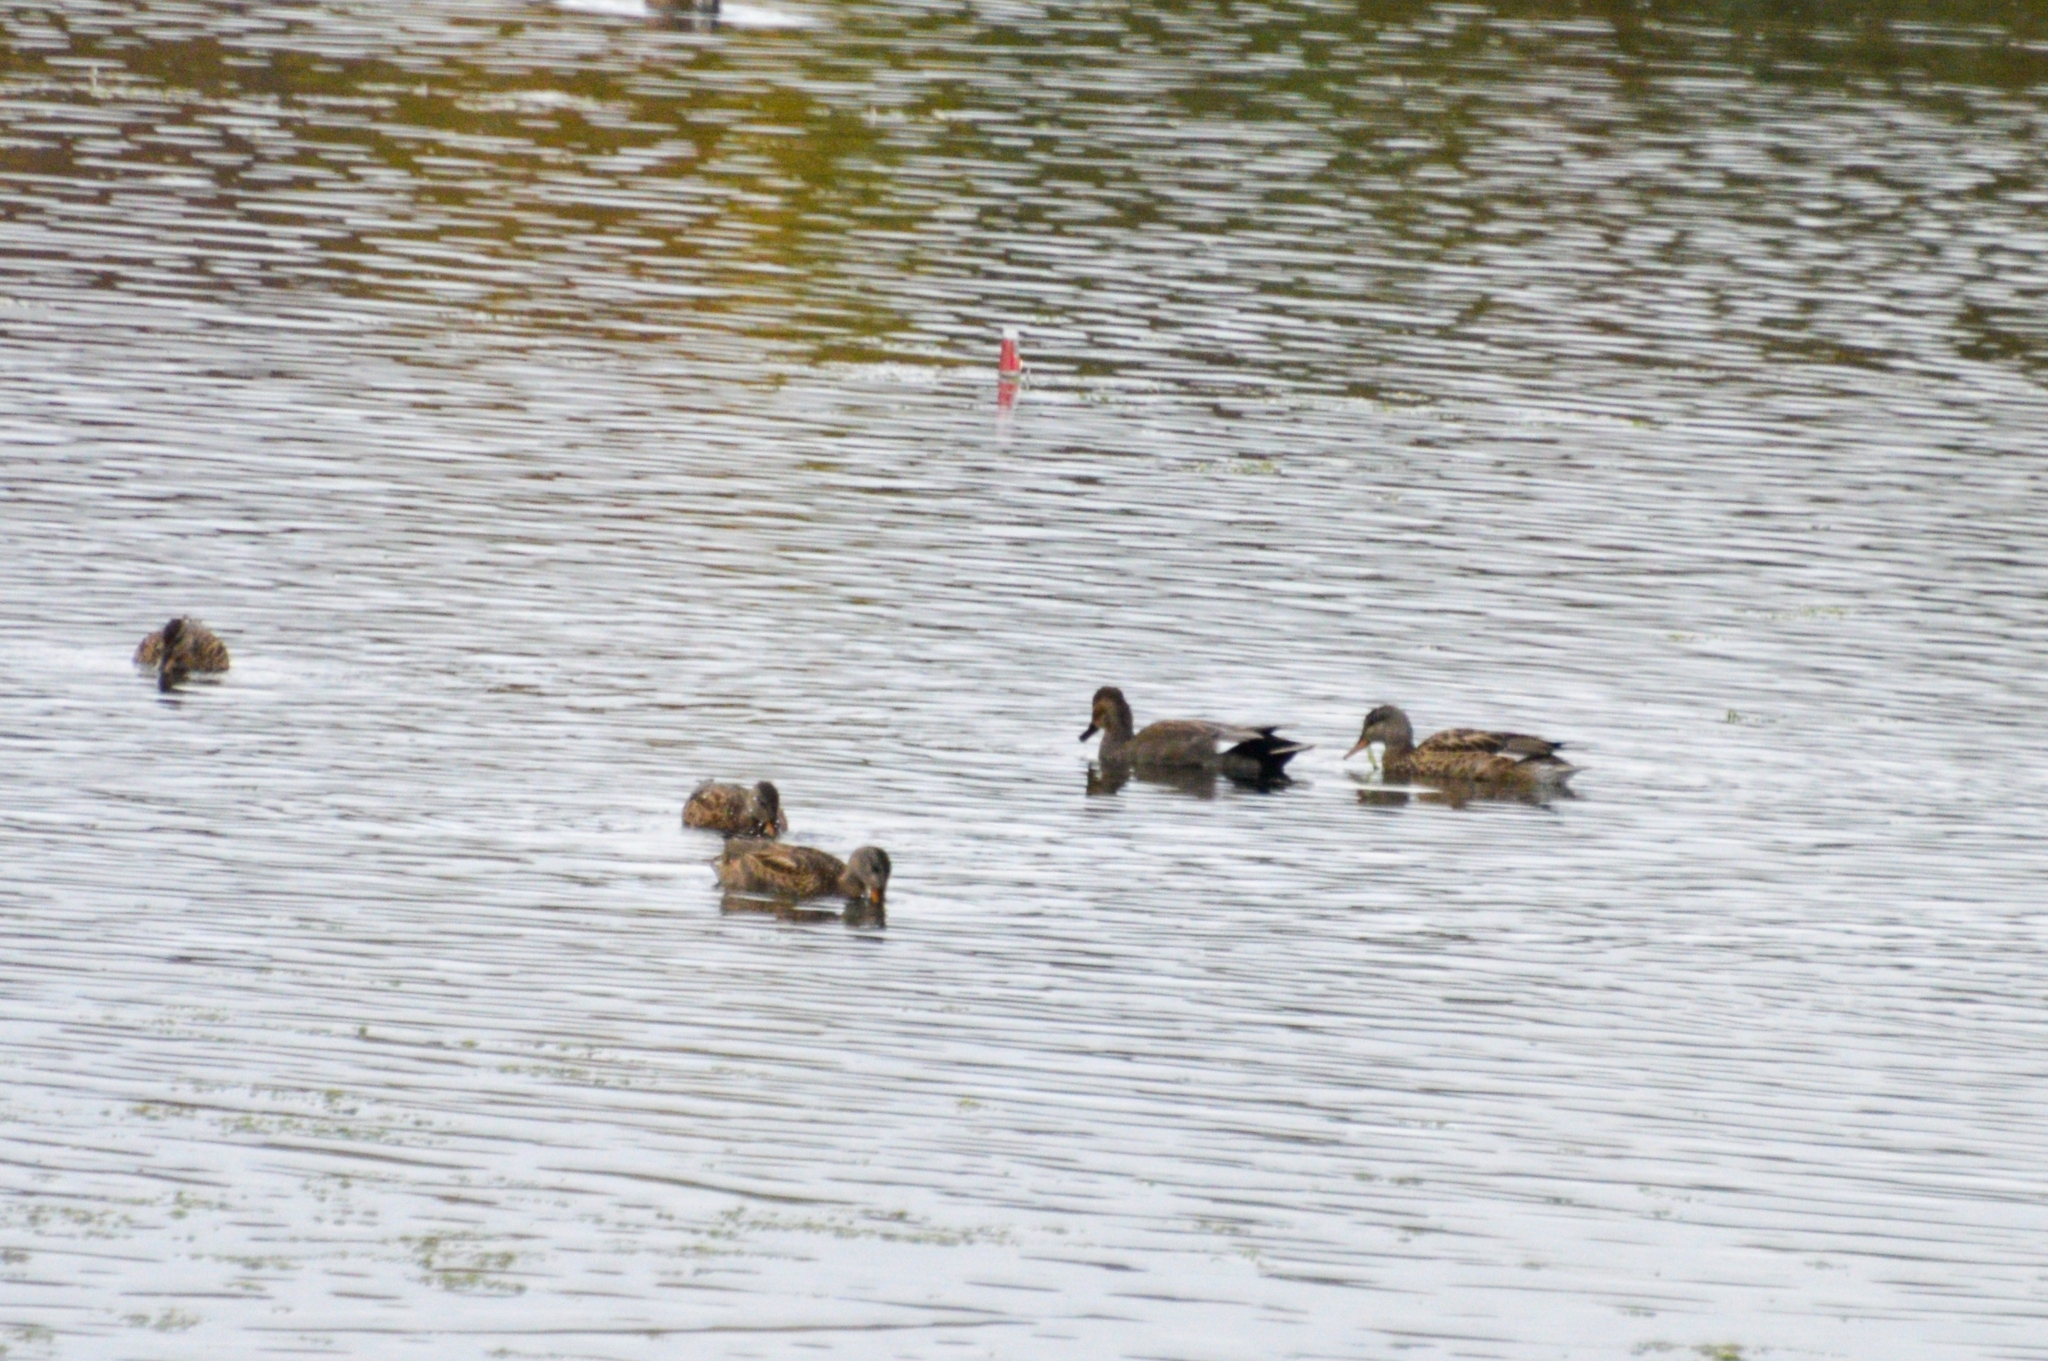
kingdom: Animalia
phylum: Chordata
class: Aves
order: Anseriformes
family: Anatidae
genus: Mareca
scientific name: Mareca strepera
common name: Gadwall
